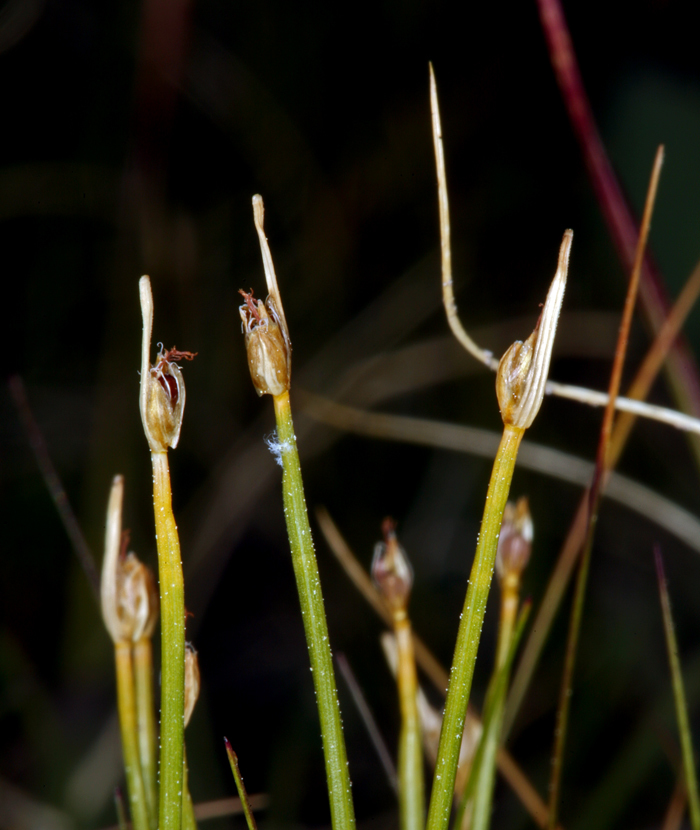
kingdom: Plantae
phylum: Tracheophyta
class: Liliopsida
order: Poales
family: Cyperaceae
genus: Trichophorum
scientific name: Trichophorum clementis
